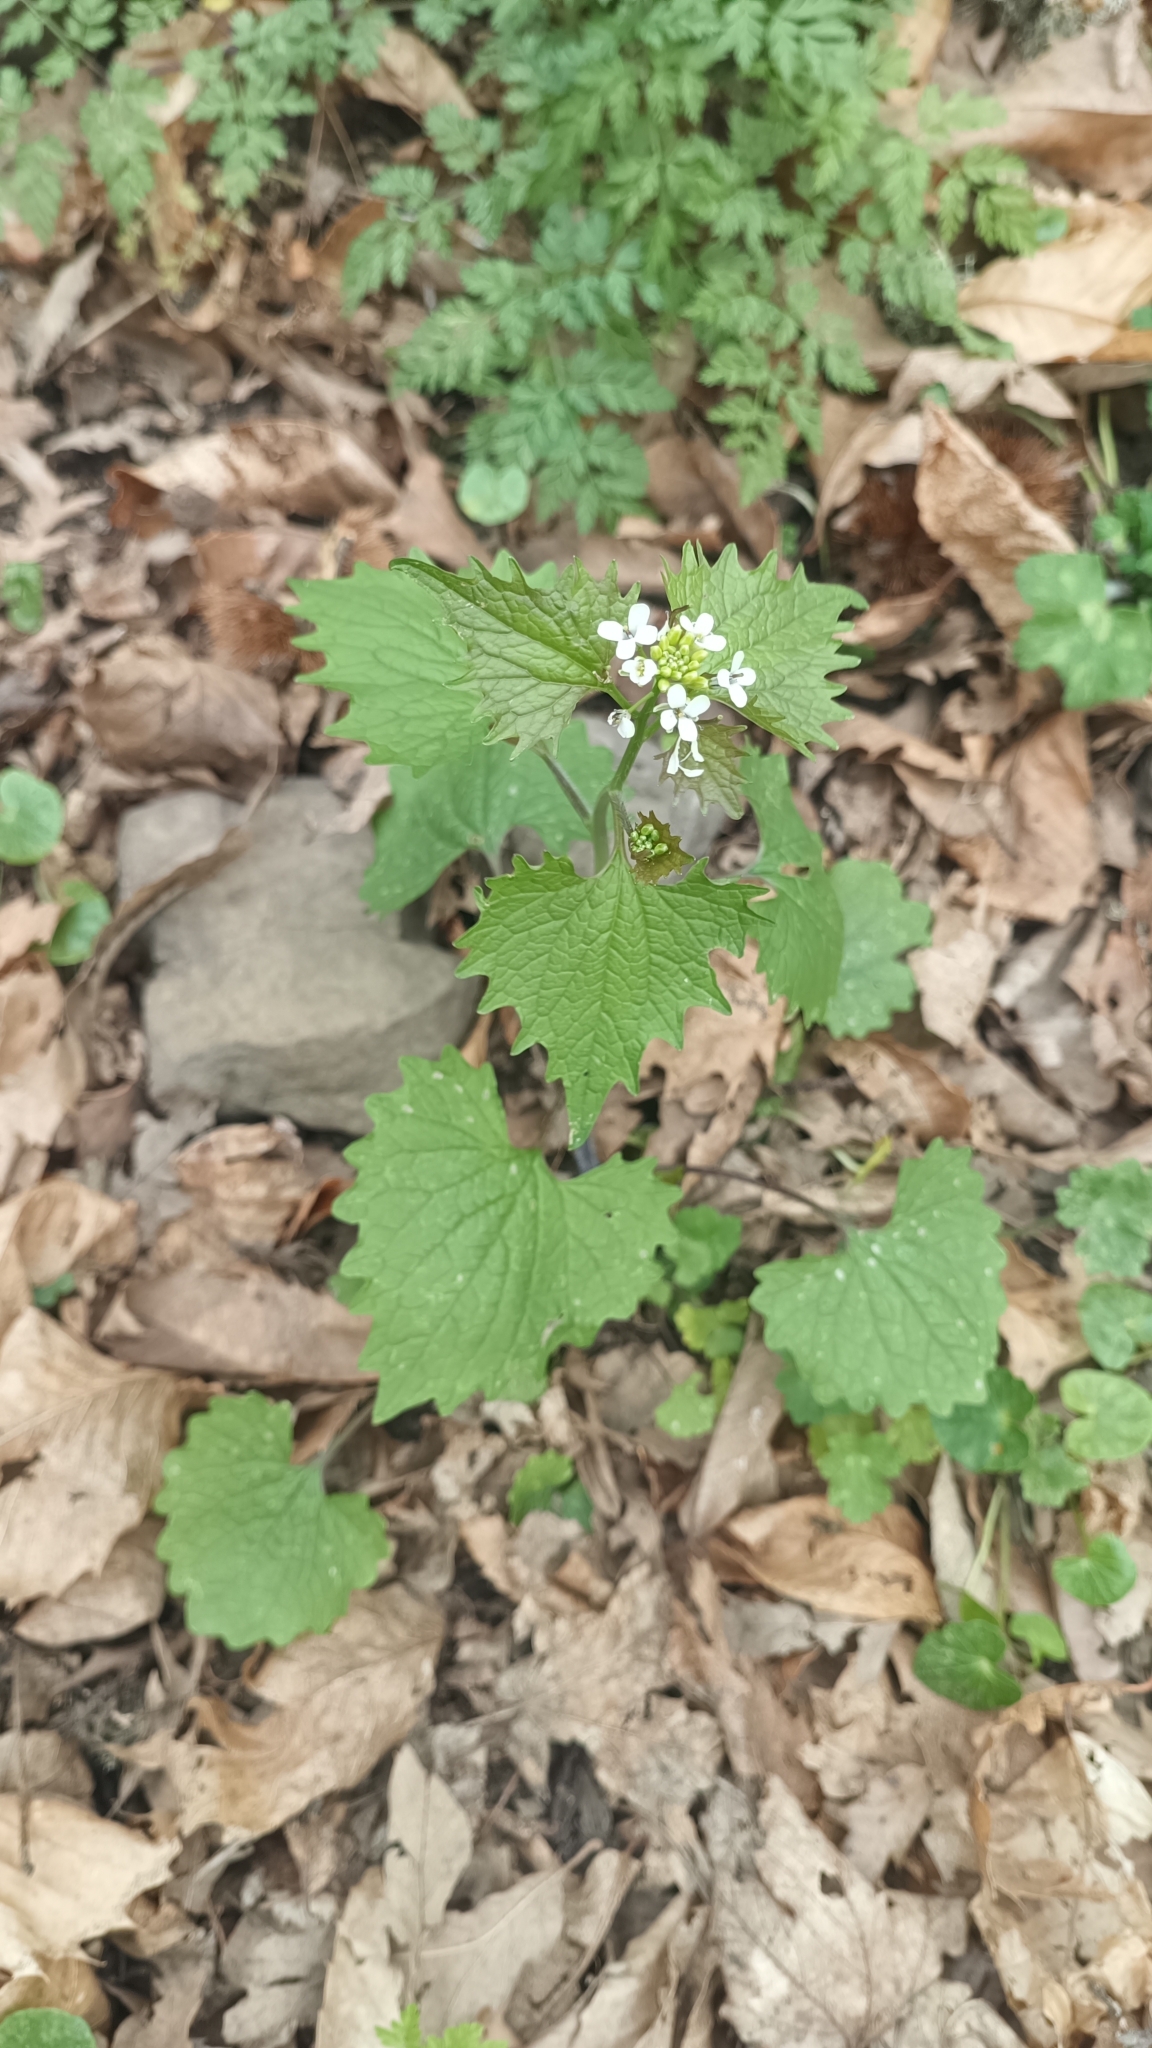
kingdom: Plantae
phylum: Tracheophyta
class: Magnoliopsida
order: Brassicales
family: Brassicaceae
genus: Alliaria
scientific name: Alliaria petiolata
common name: Garlic mustard
